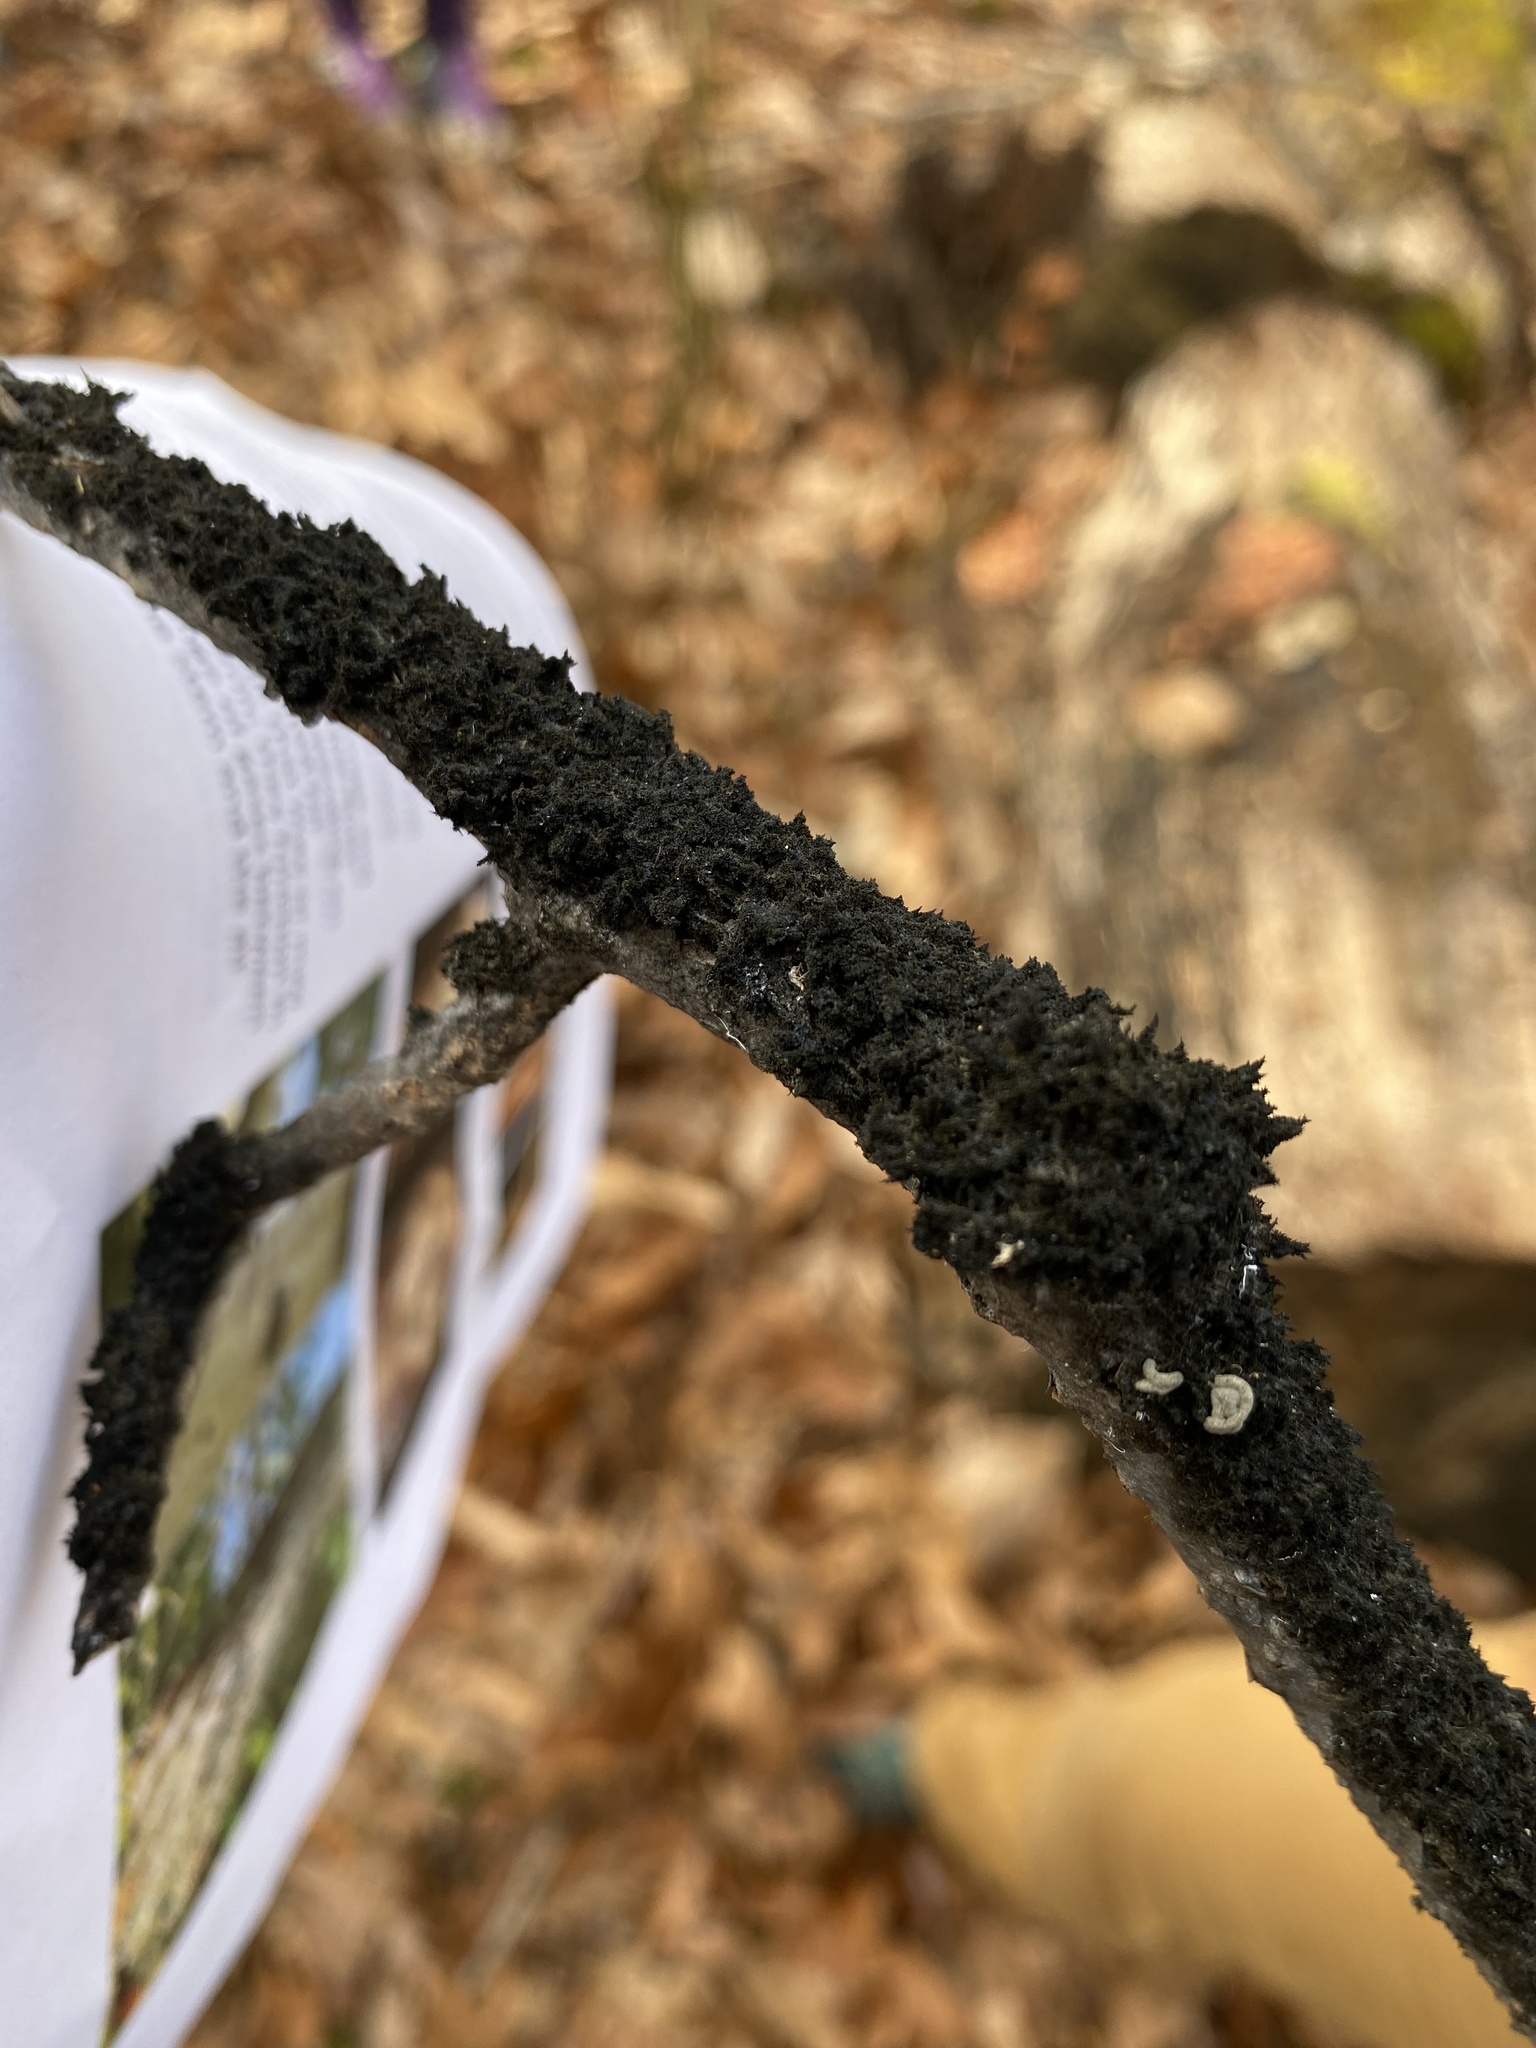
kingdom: Fungi
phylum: Ascomycota
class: Dothideomycetes
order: Capnodiales
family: Capnodiaceae
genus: Scorias
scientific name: Scorias spongiosa
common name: Black sooty mold
